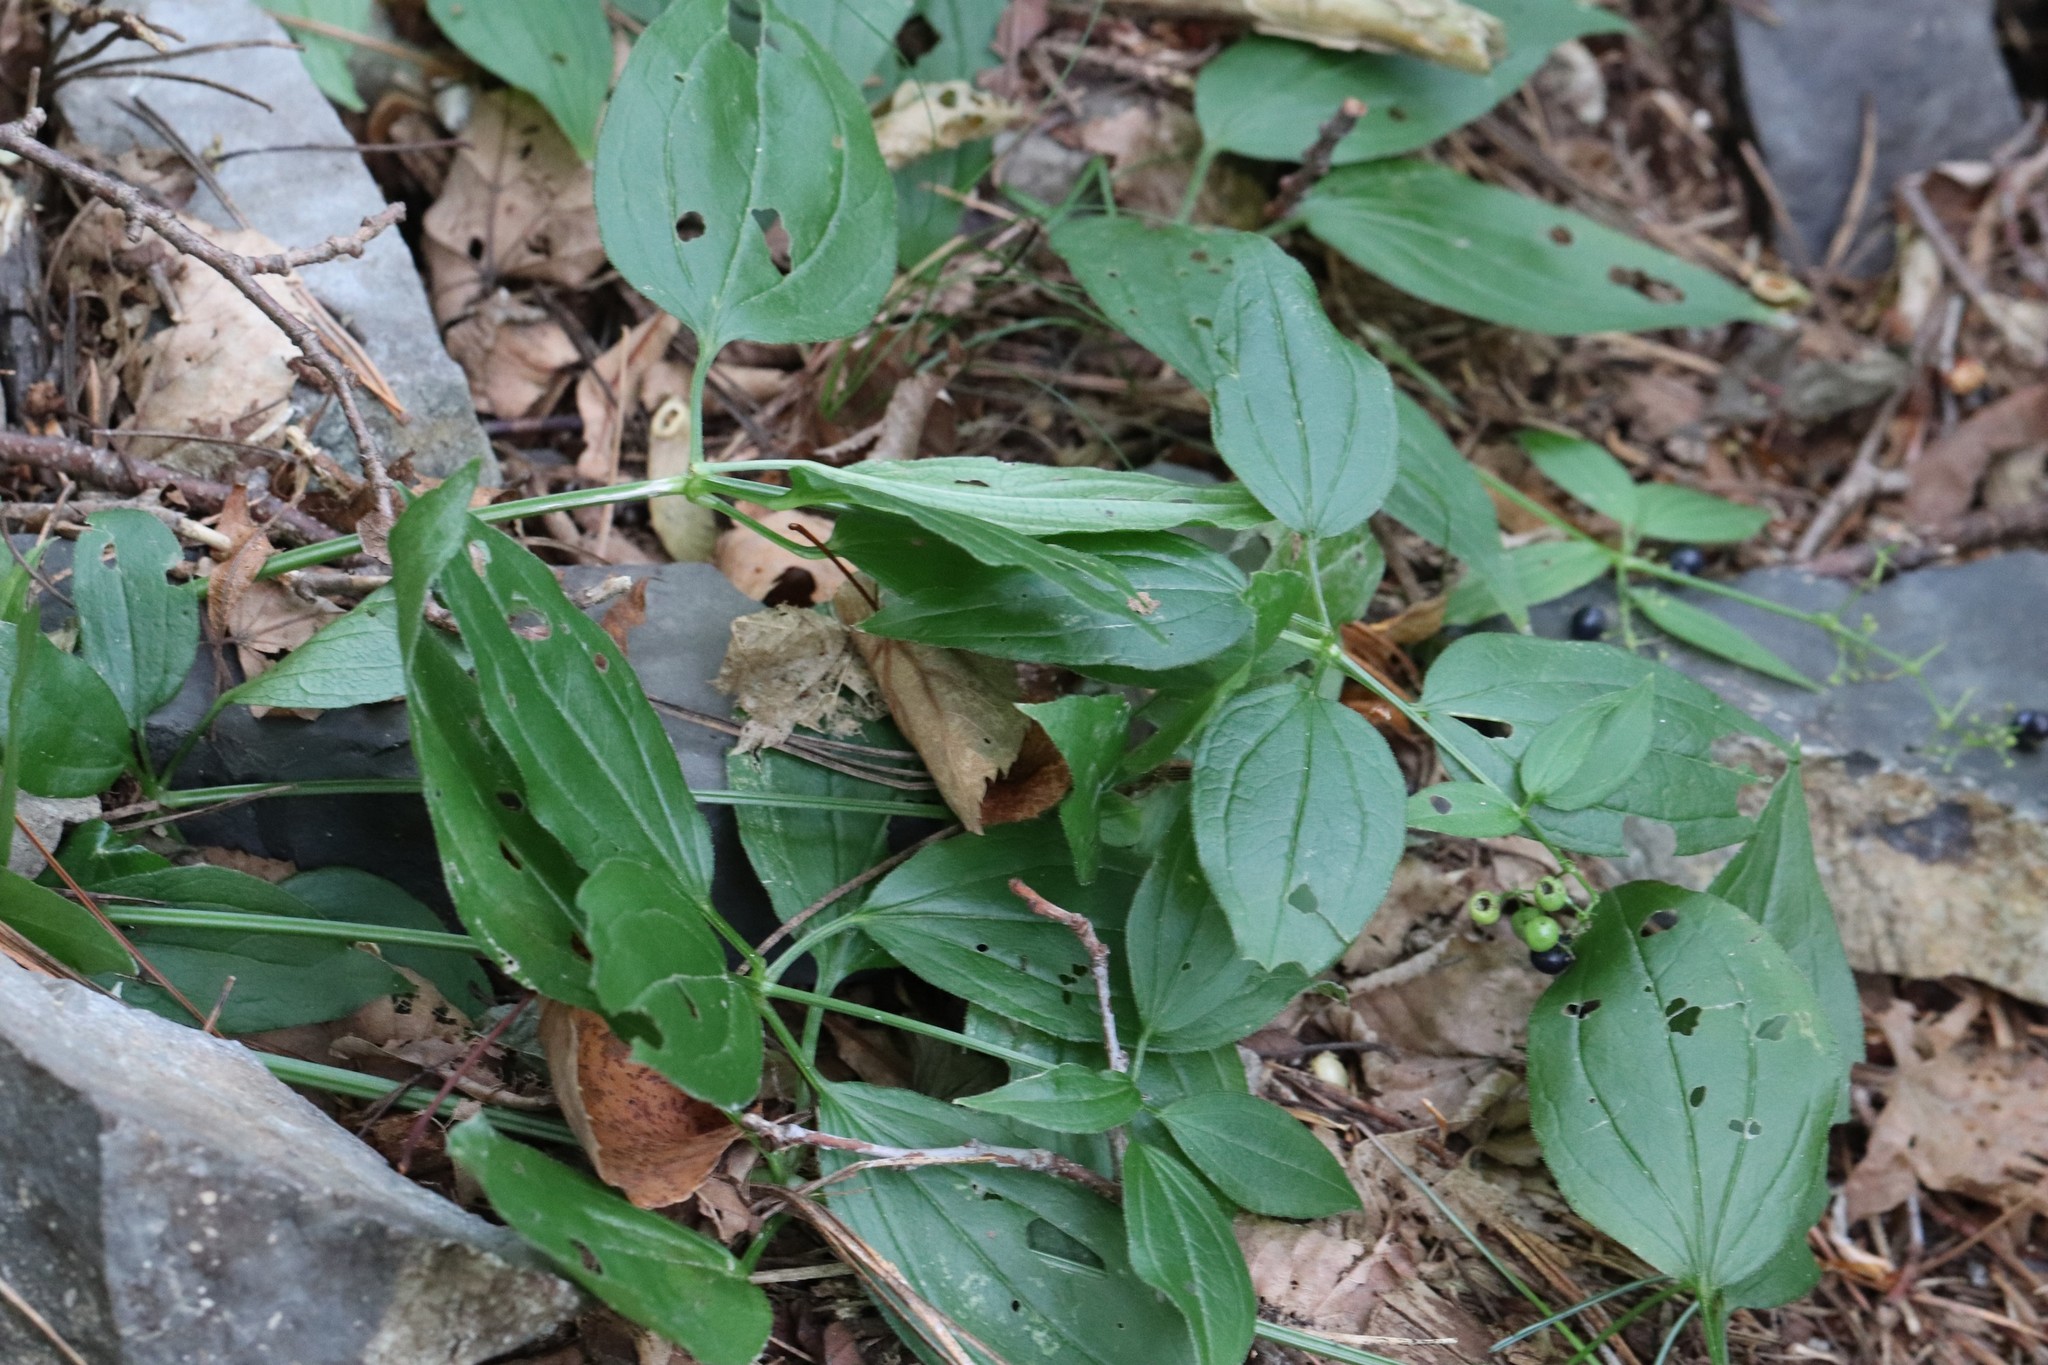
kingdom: Plantae
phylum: Tracheophyta
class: Magnoliopsida
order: Gentianales
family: Rubiaceae
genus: Rubia
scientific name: Rubia cordifolia
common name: Indian madder
